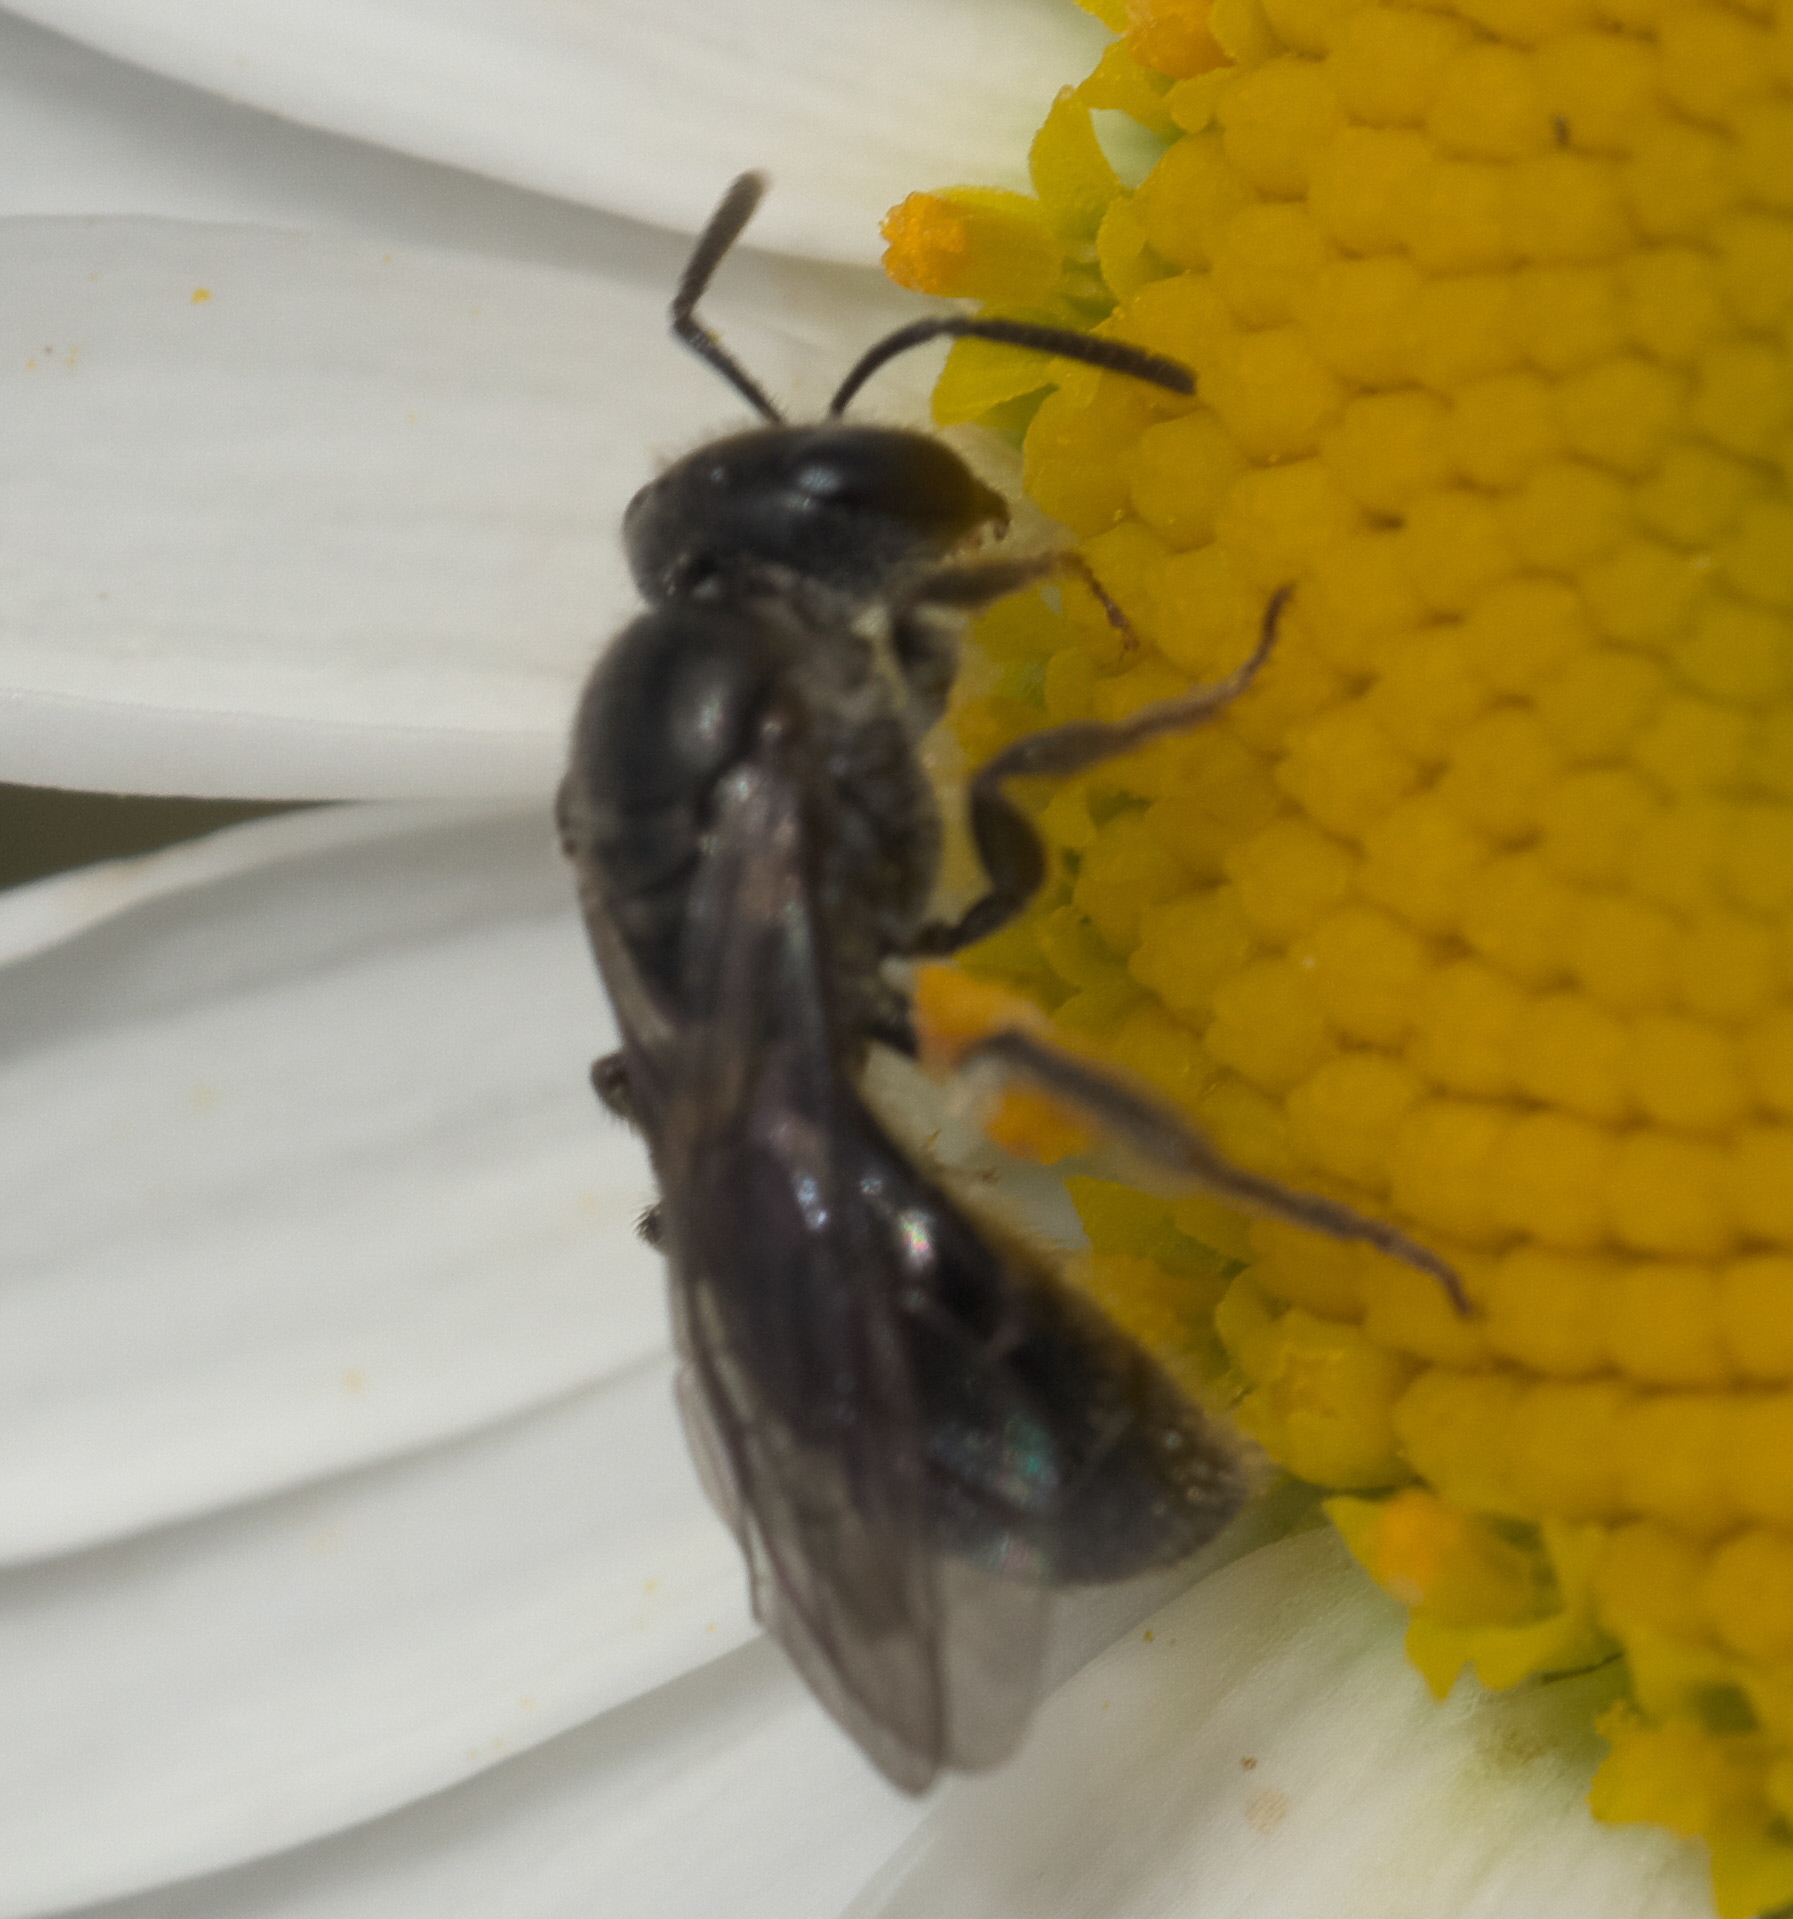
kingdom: Animalia
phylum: Arthropoda
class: Insecta
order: Hymenoptera
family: Halictidae
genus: Lasioglossum
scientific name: Lasioglossum sordidum
